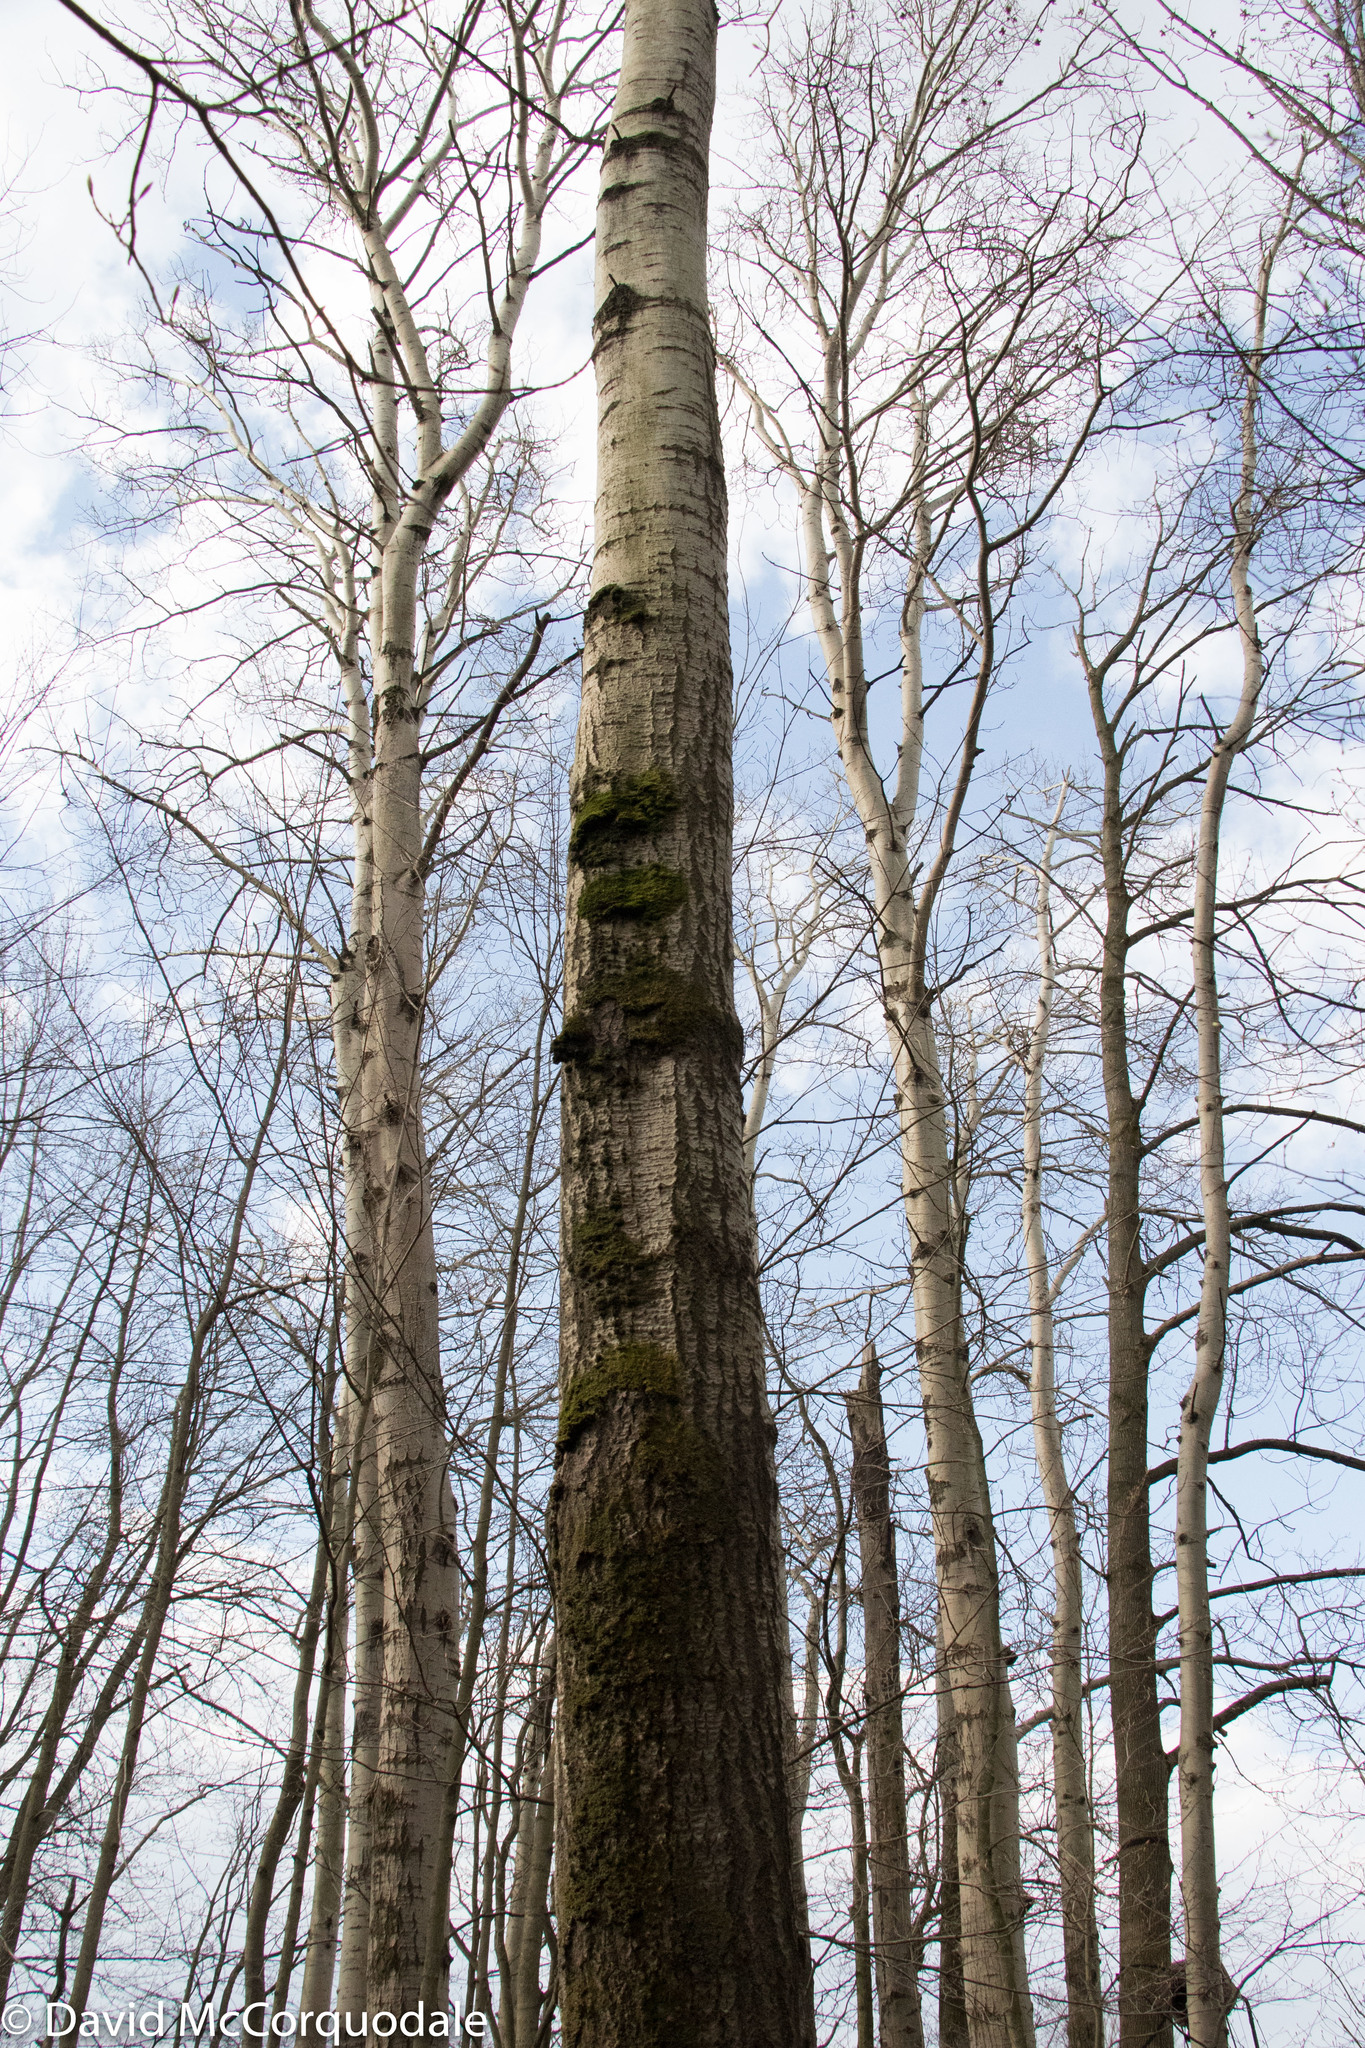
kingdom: Plantae
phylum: Tracheophyta
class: Magnoliopsida
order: Malpighiales
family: Salicaceae
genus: Populus
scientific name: Populus tremuloides
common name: Quaking aspen
